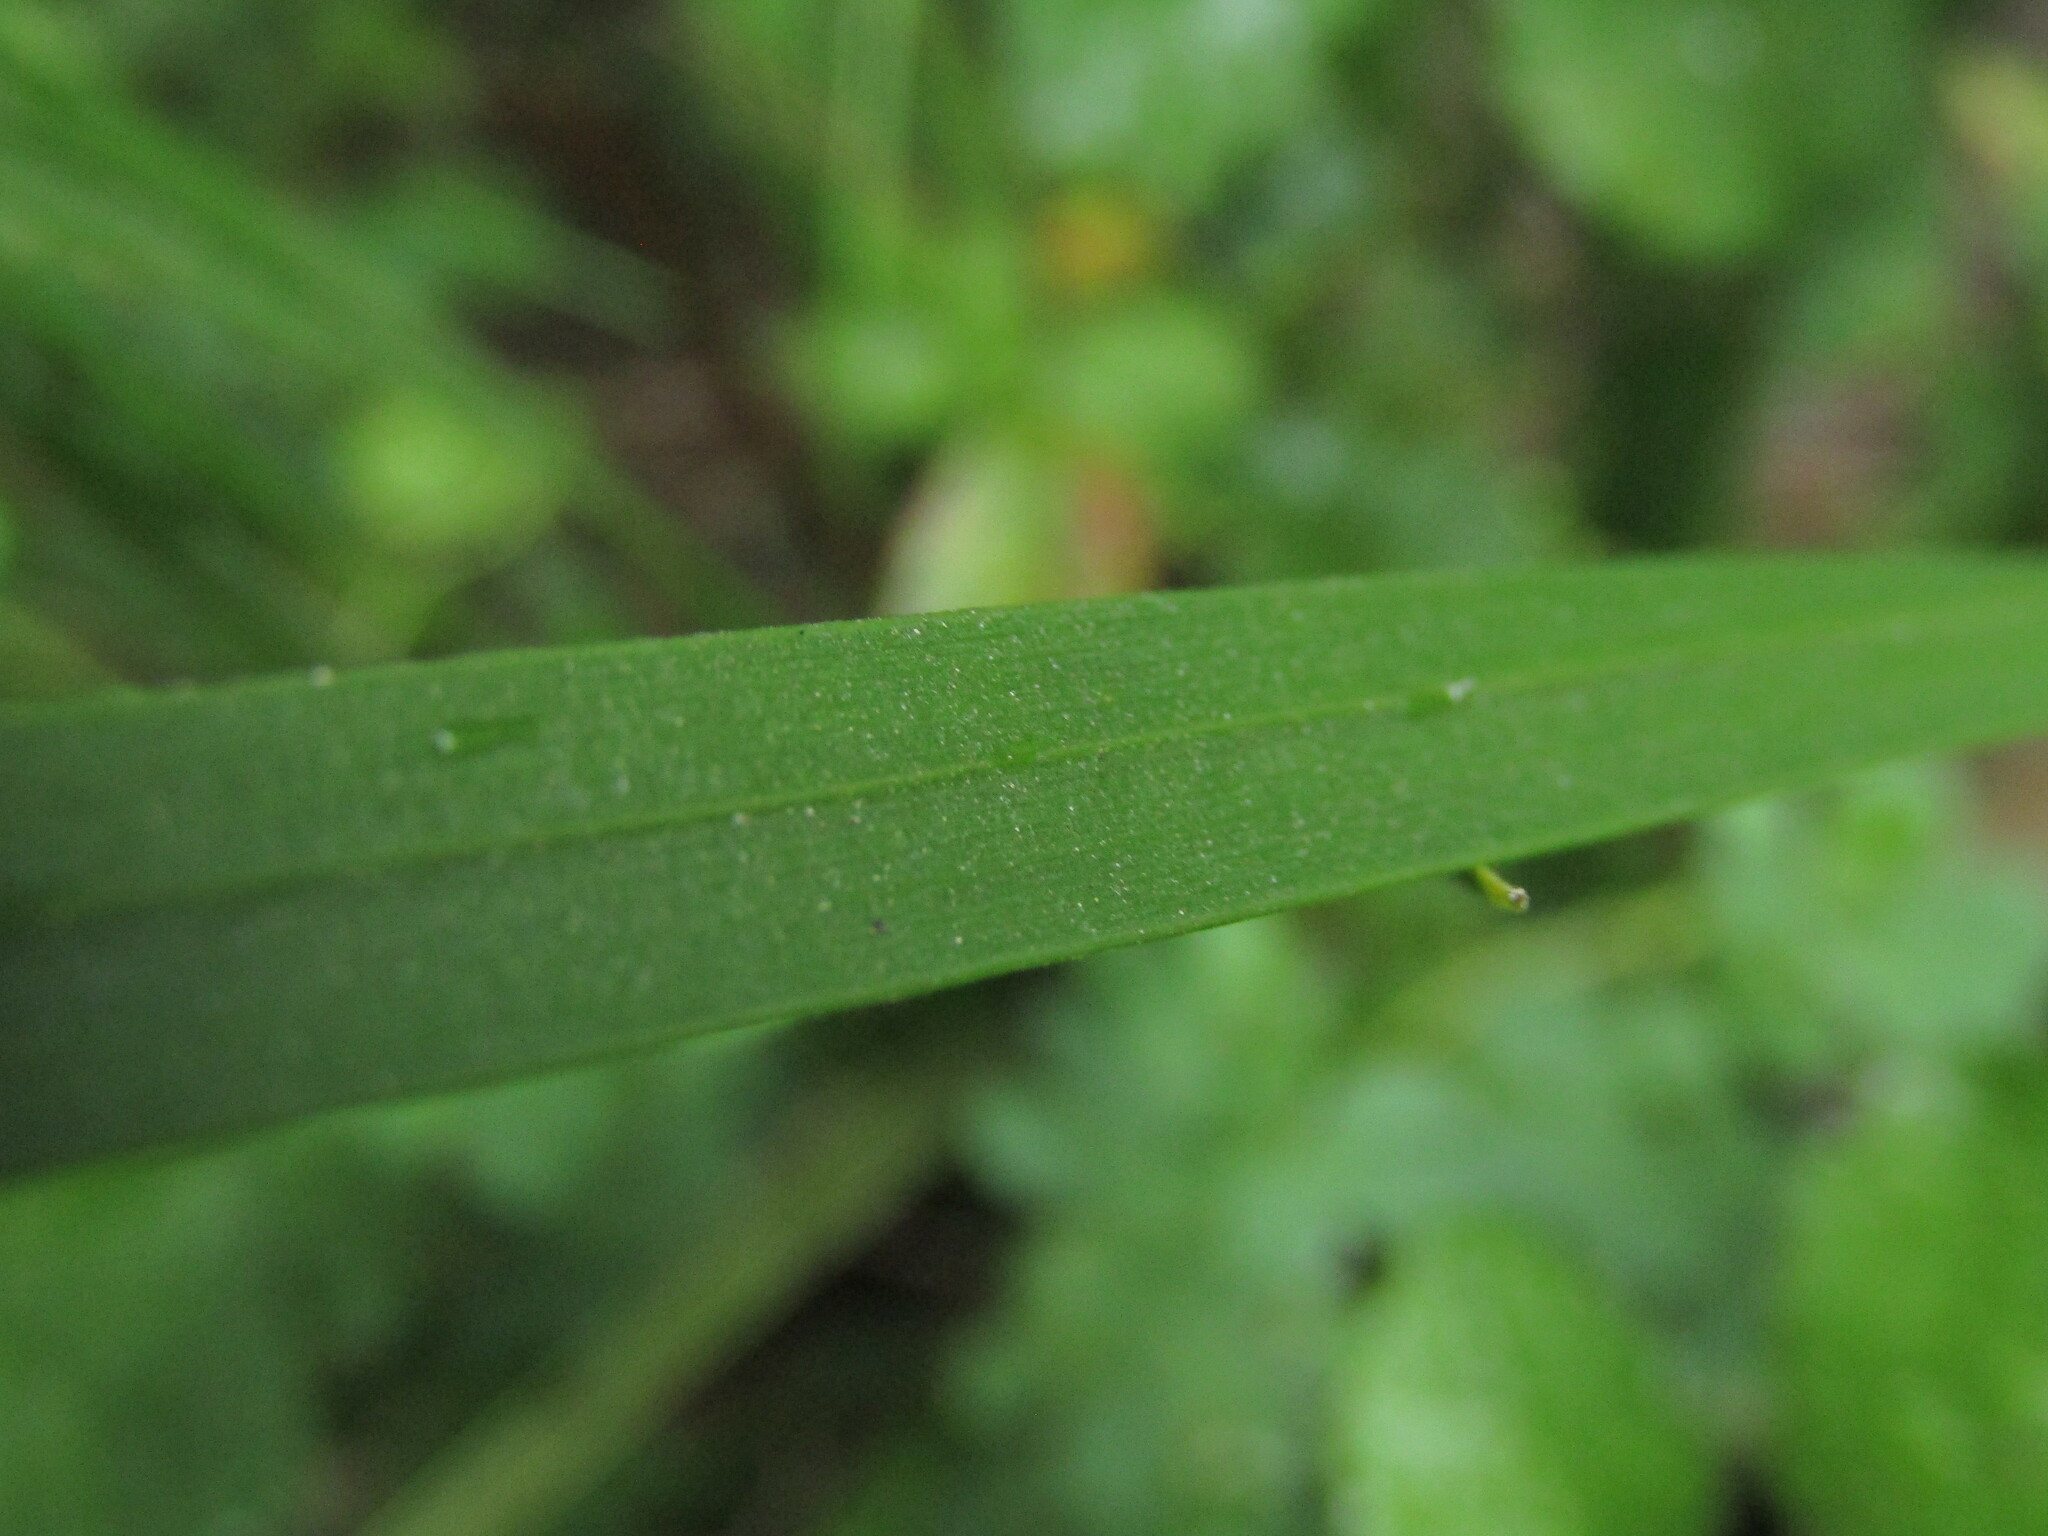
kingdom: Plantae
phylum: Tracheophyta
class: Liliopsida
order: Asparagales
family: Iridaceae
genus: Libertia
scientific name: Libertia sessiliflora
